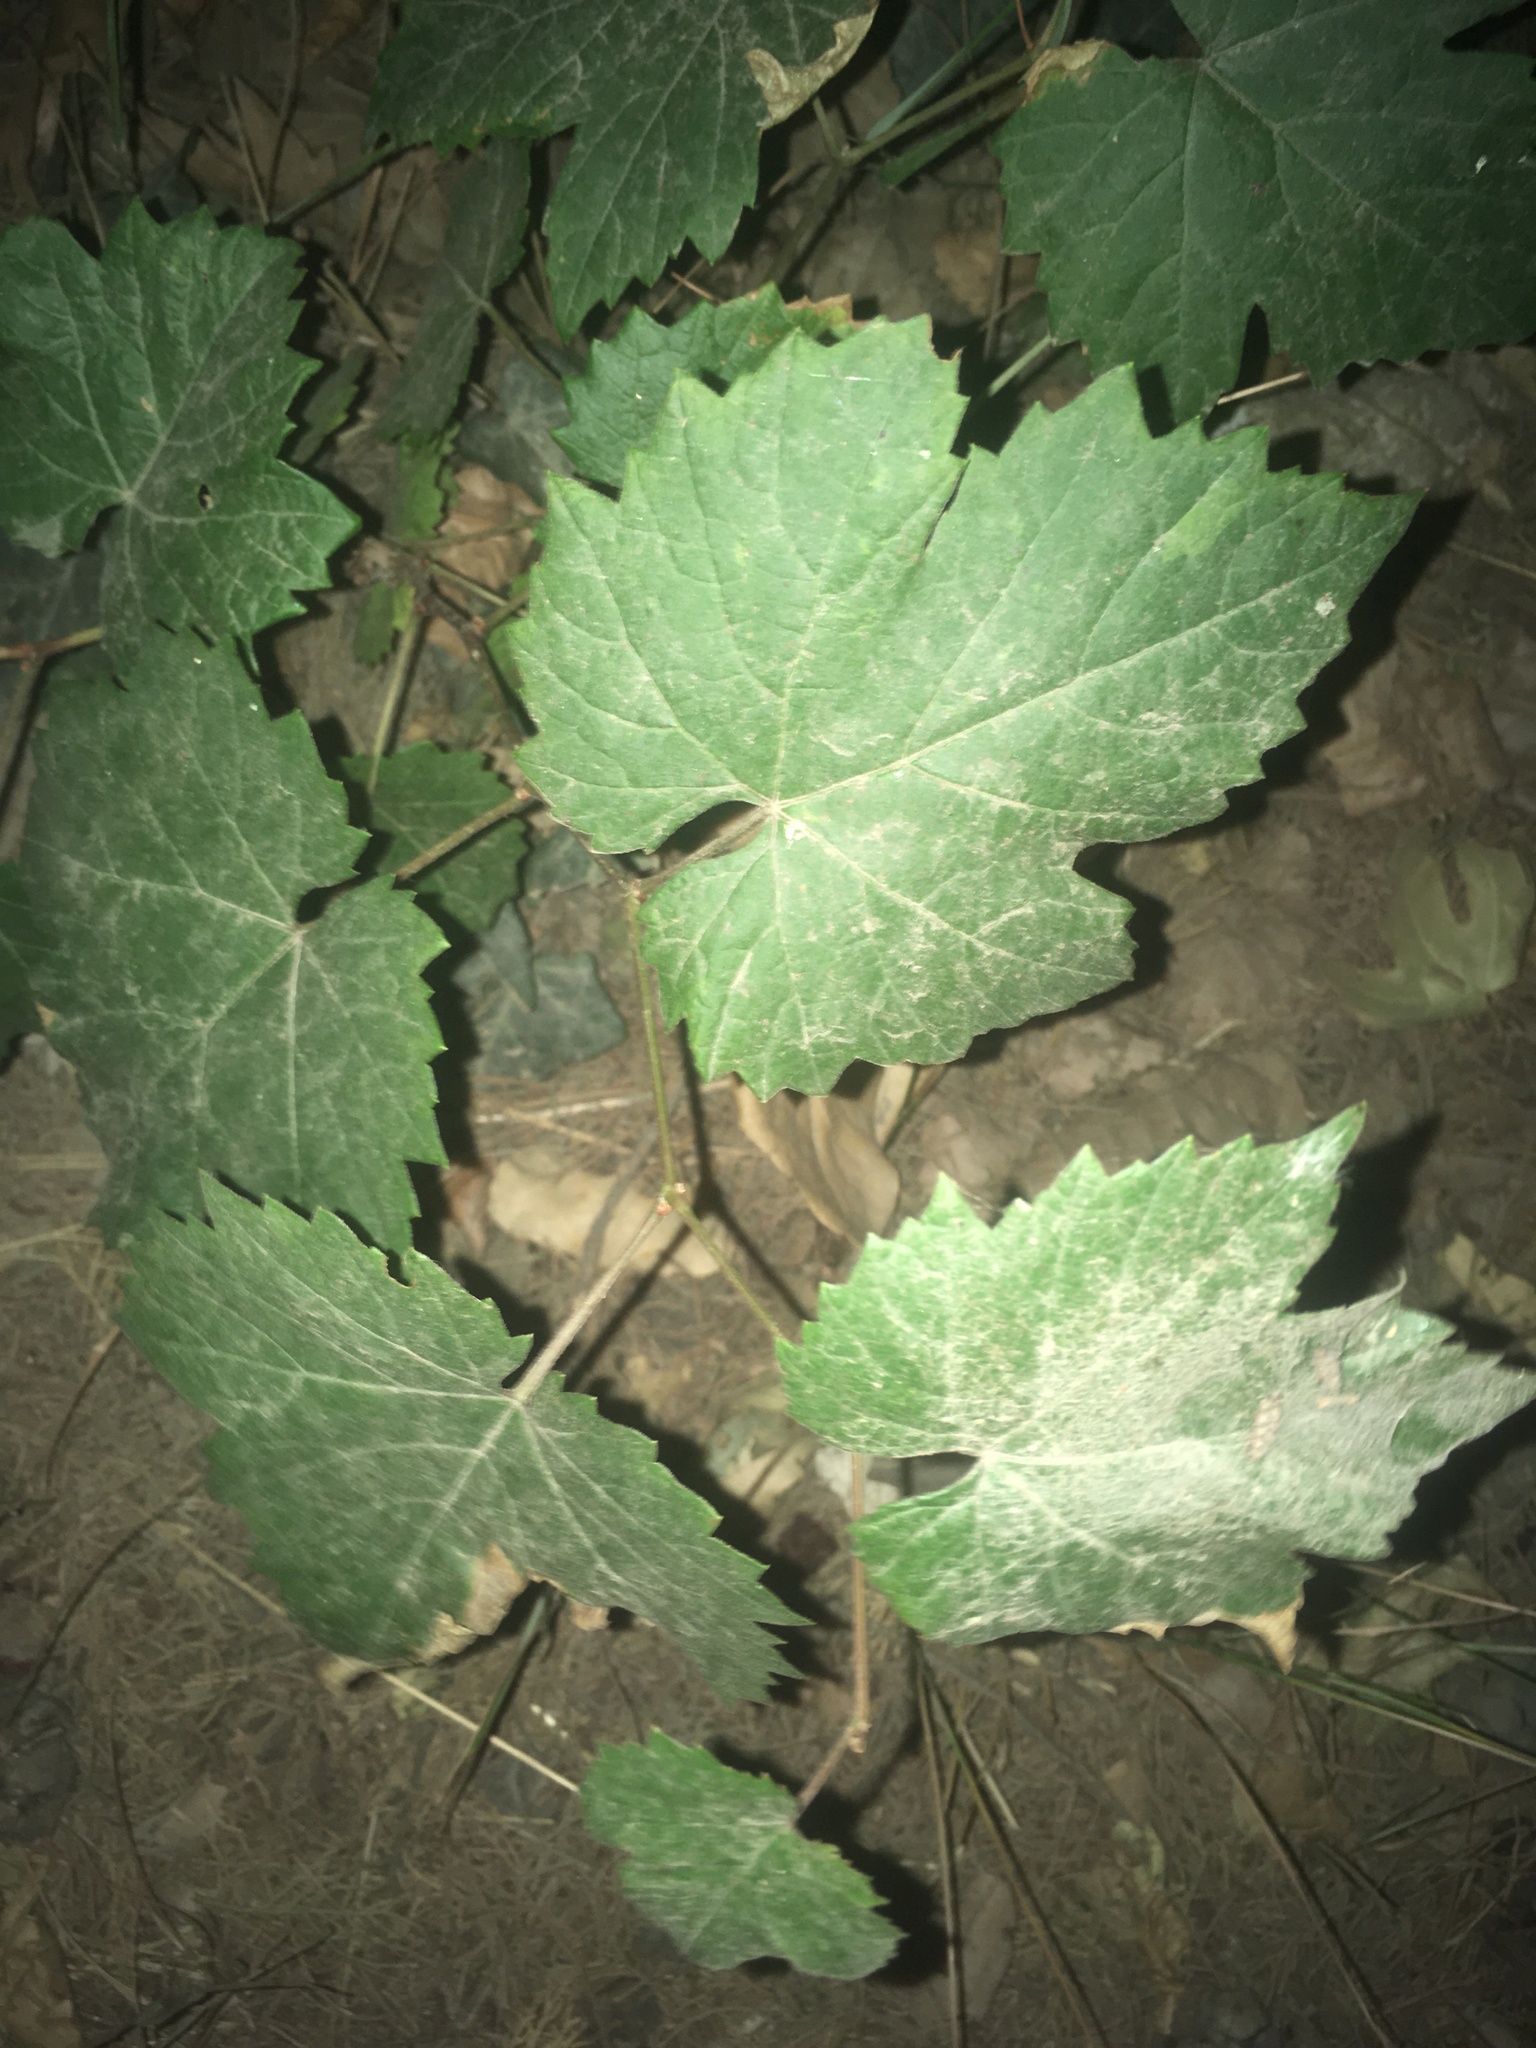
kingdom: Plantae
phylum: Tracheophyta
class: Magnoliopsida
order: Vitales
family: Vitaceae
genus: Vitis
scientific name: Vitis vinifera
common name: Grape-vine
